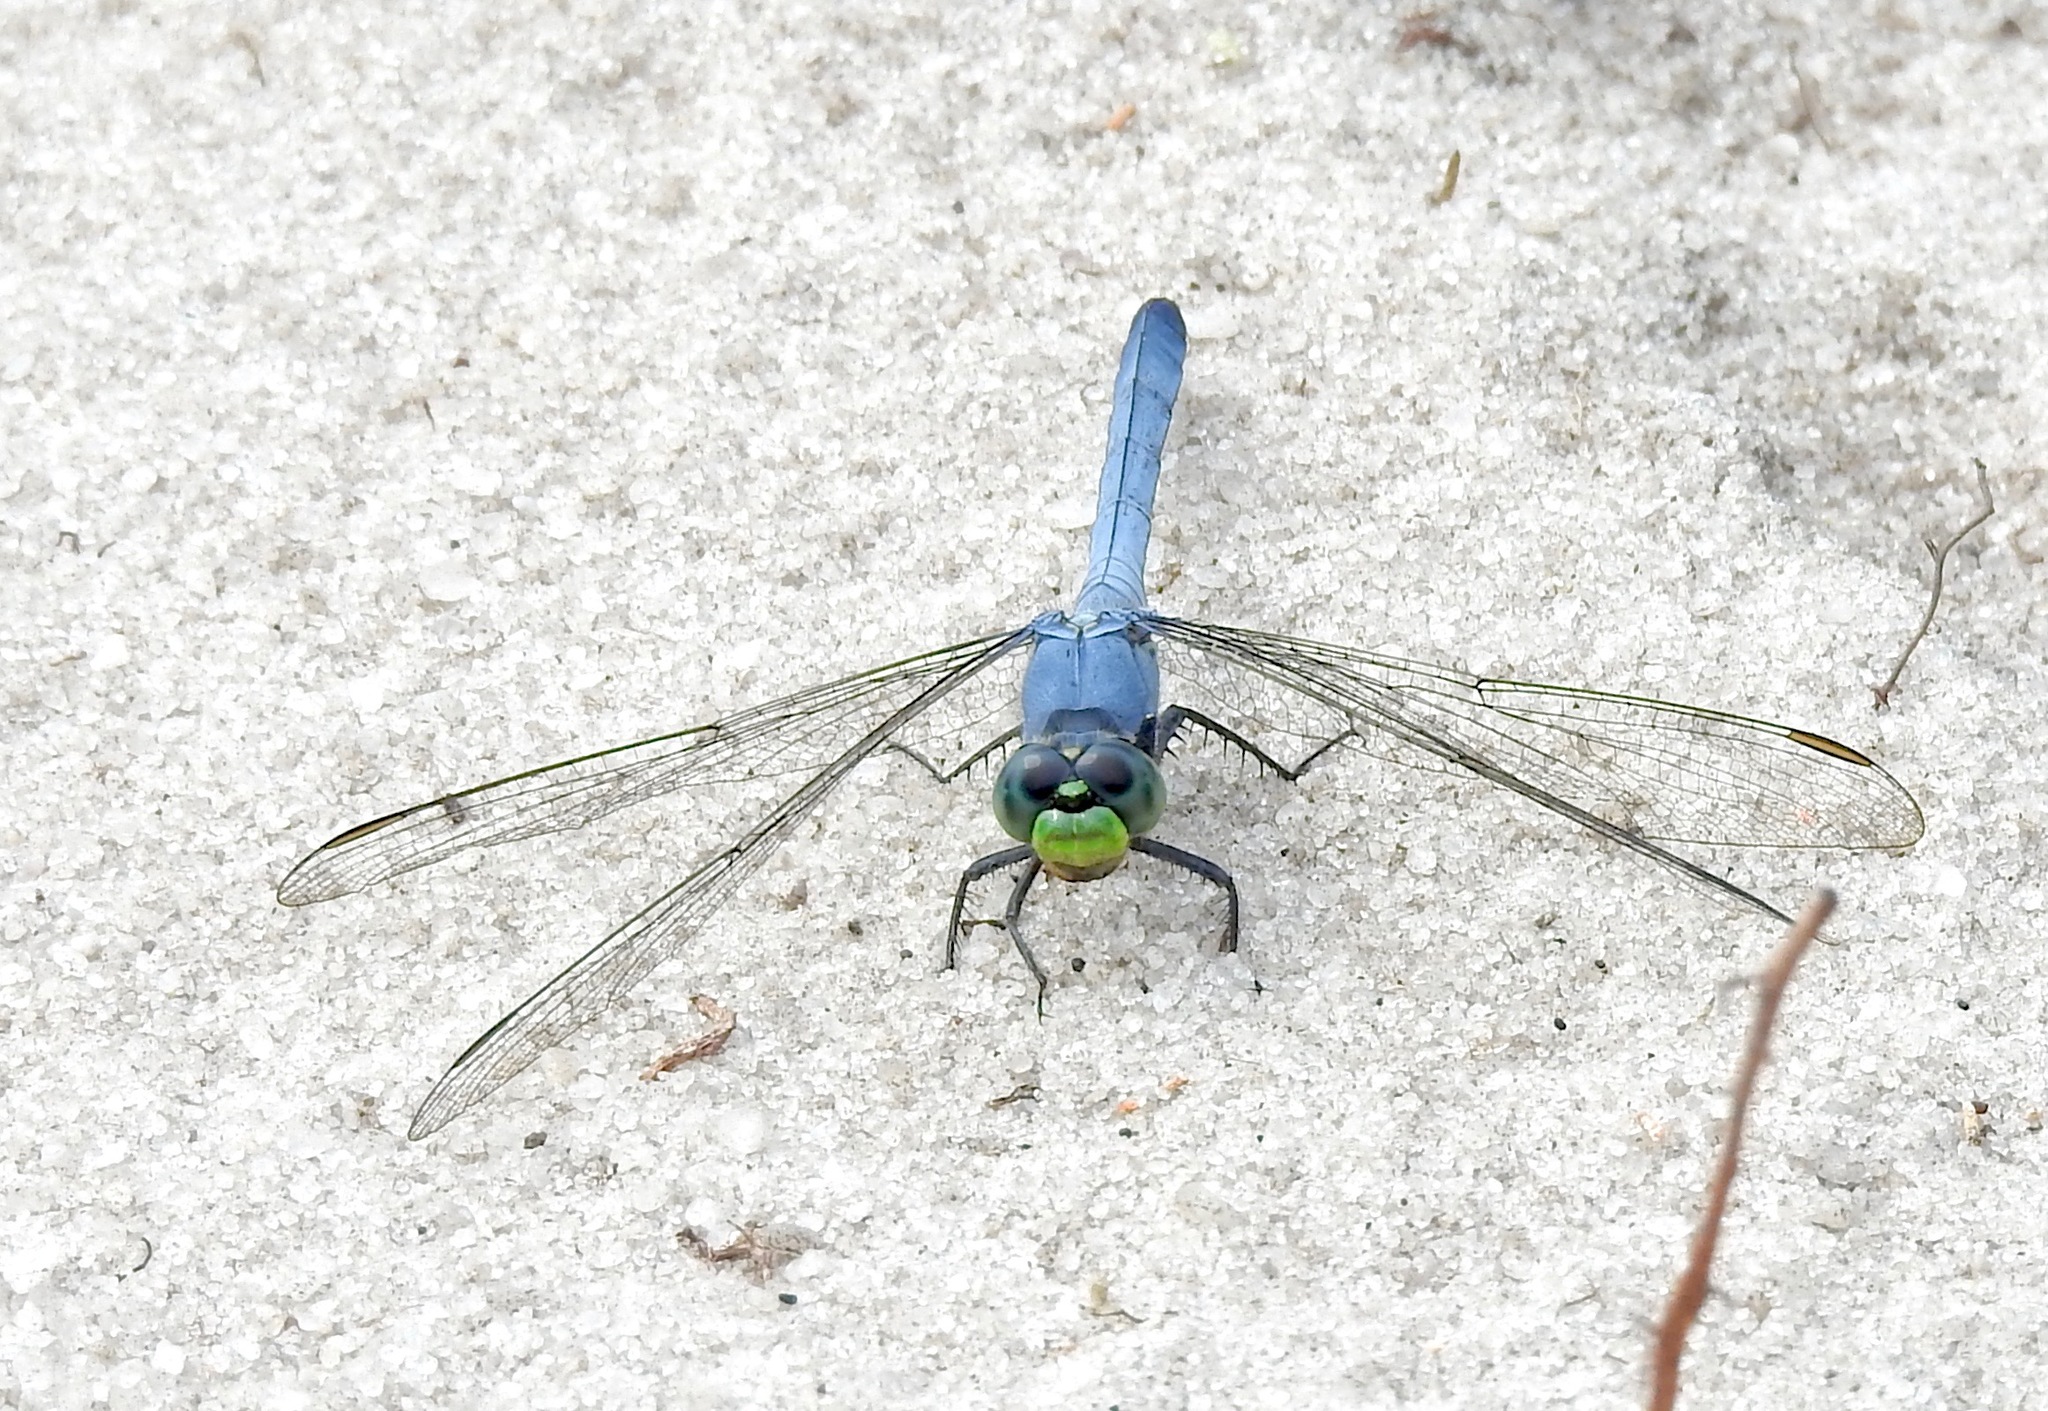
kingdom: Animalia
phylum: Arthropoda
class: Insecta
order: Odonata
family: Libellulidae
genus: Erythemis
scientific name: Erythemis simplicicollis
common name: Eastern pondhawk
